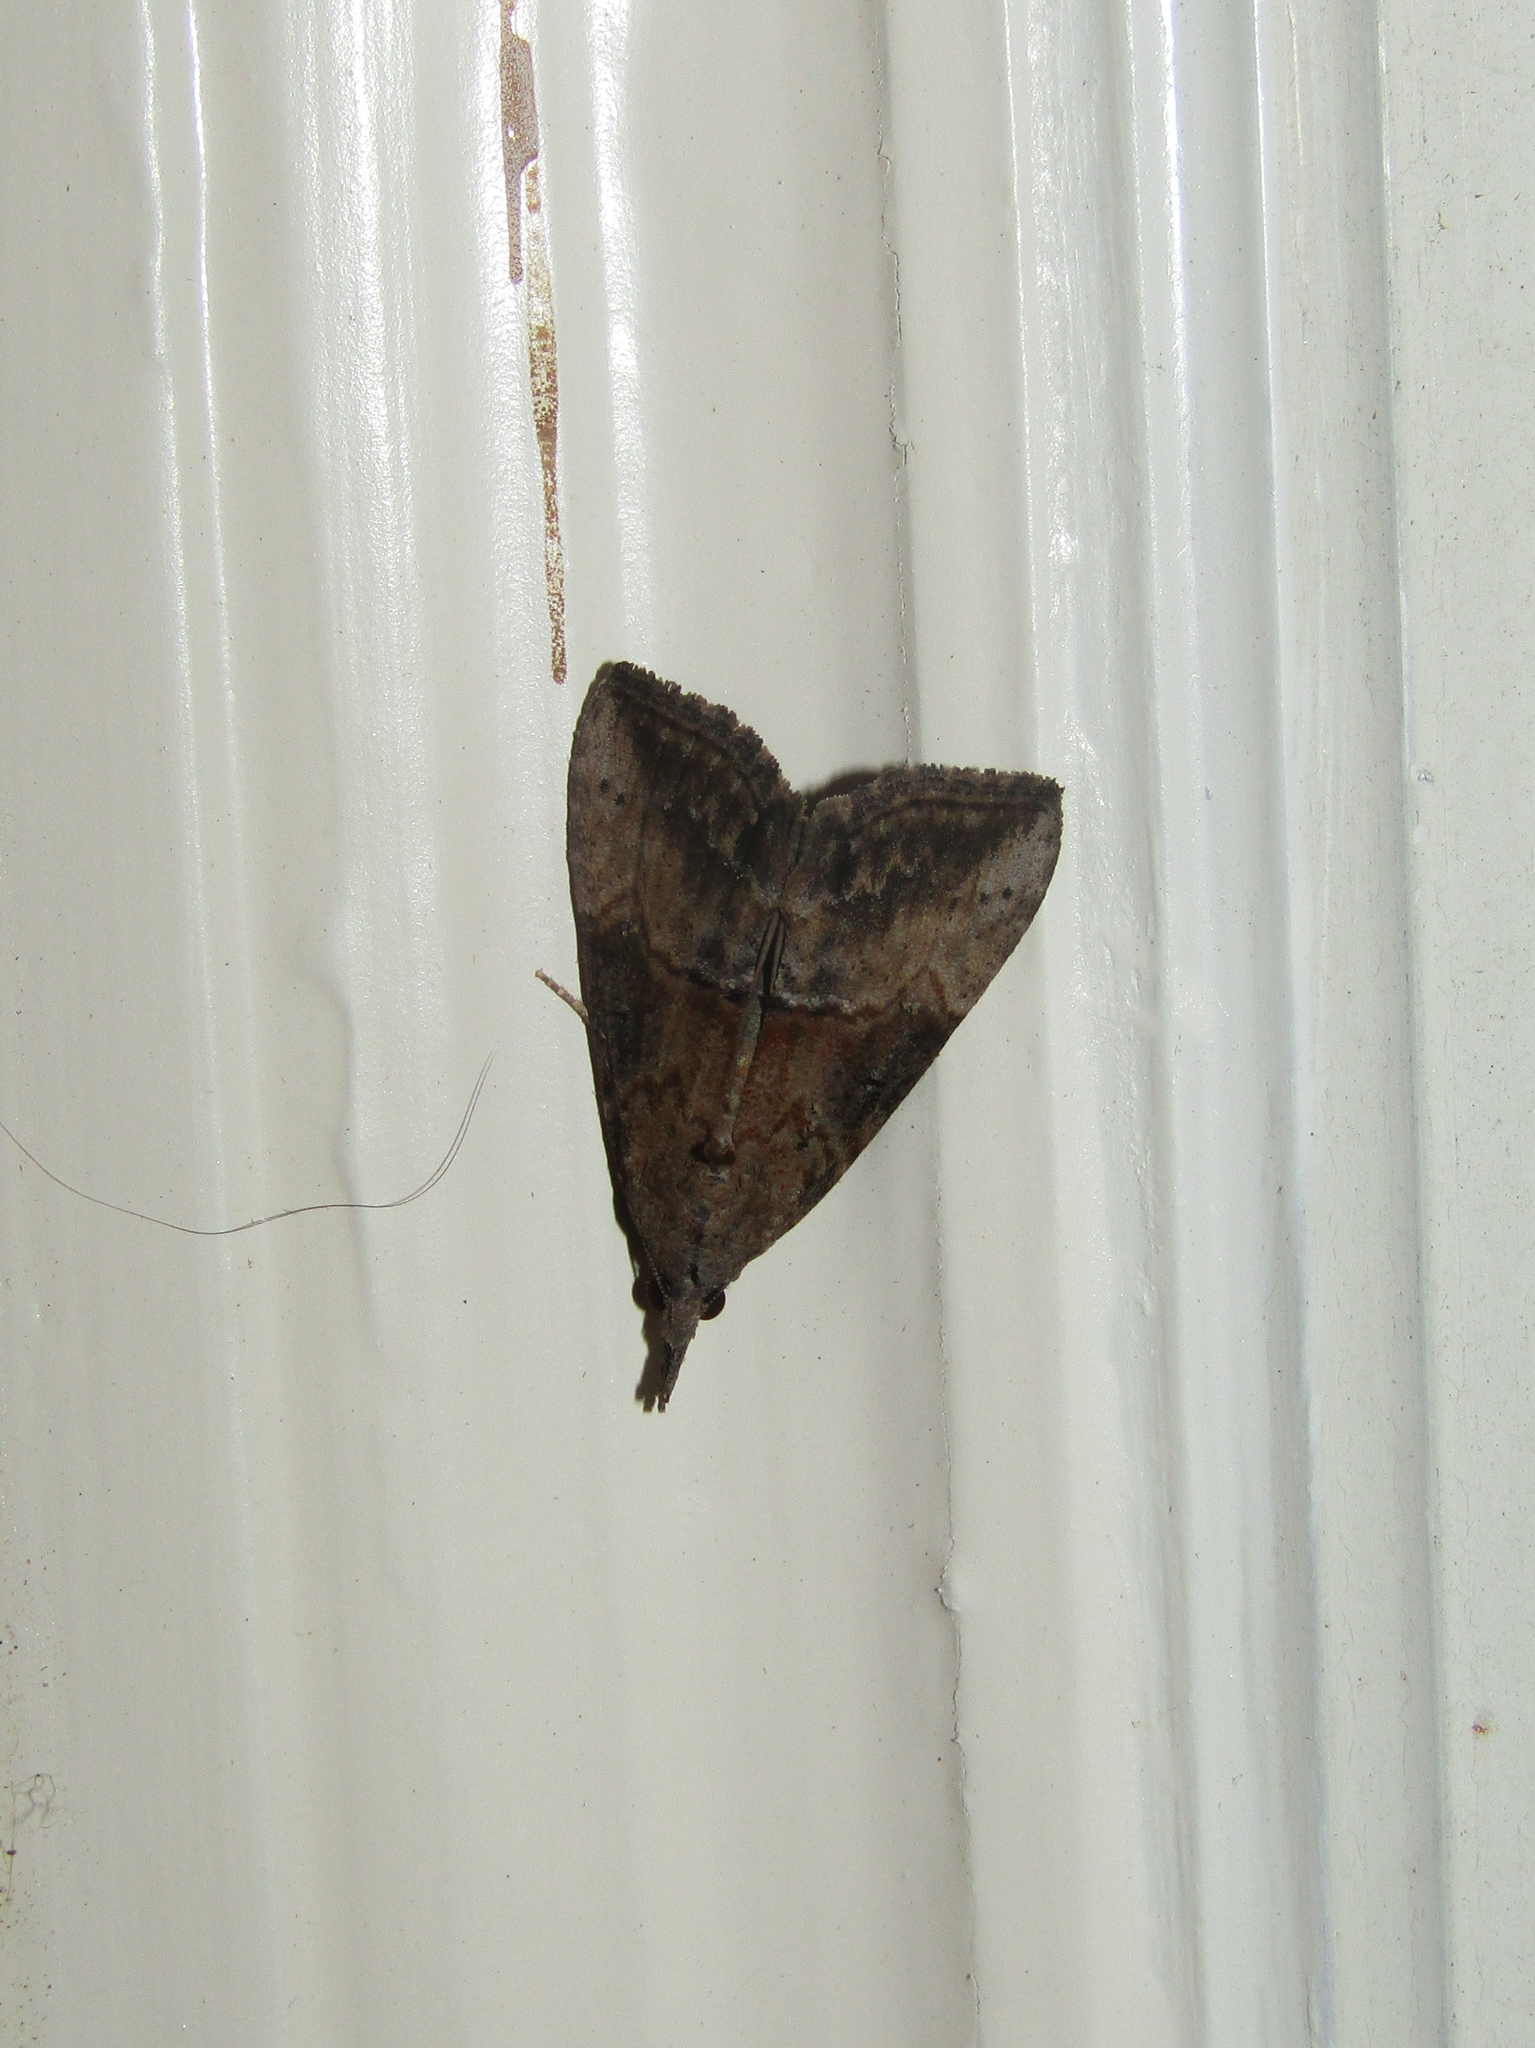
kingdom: Animalia
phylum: Arthropoda
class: Insecta
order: Lepidoptera
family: Erebidae
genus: Hypena
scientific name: Hypena scabra
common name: Green cloverworm
